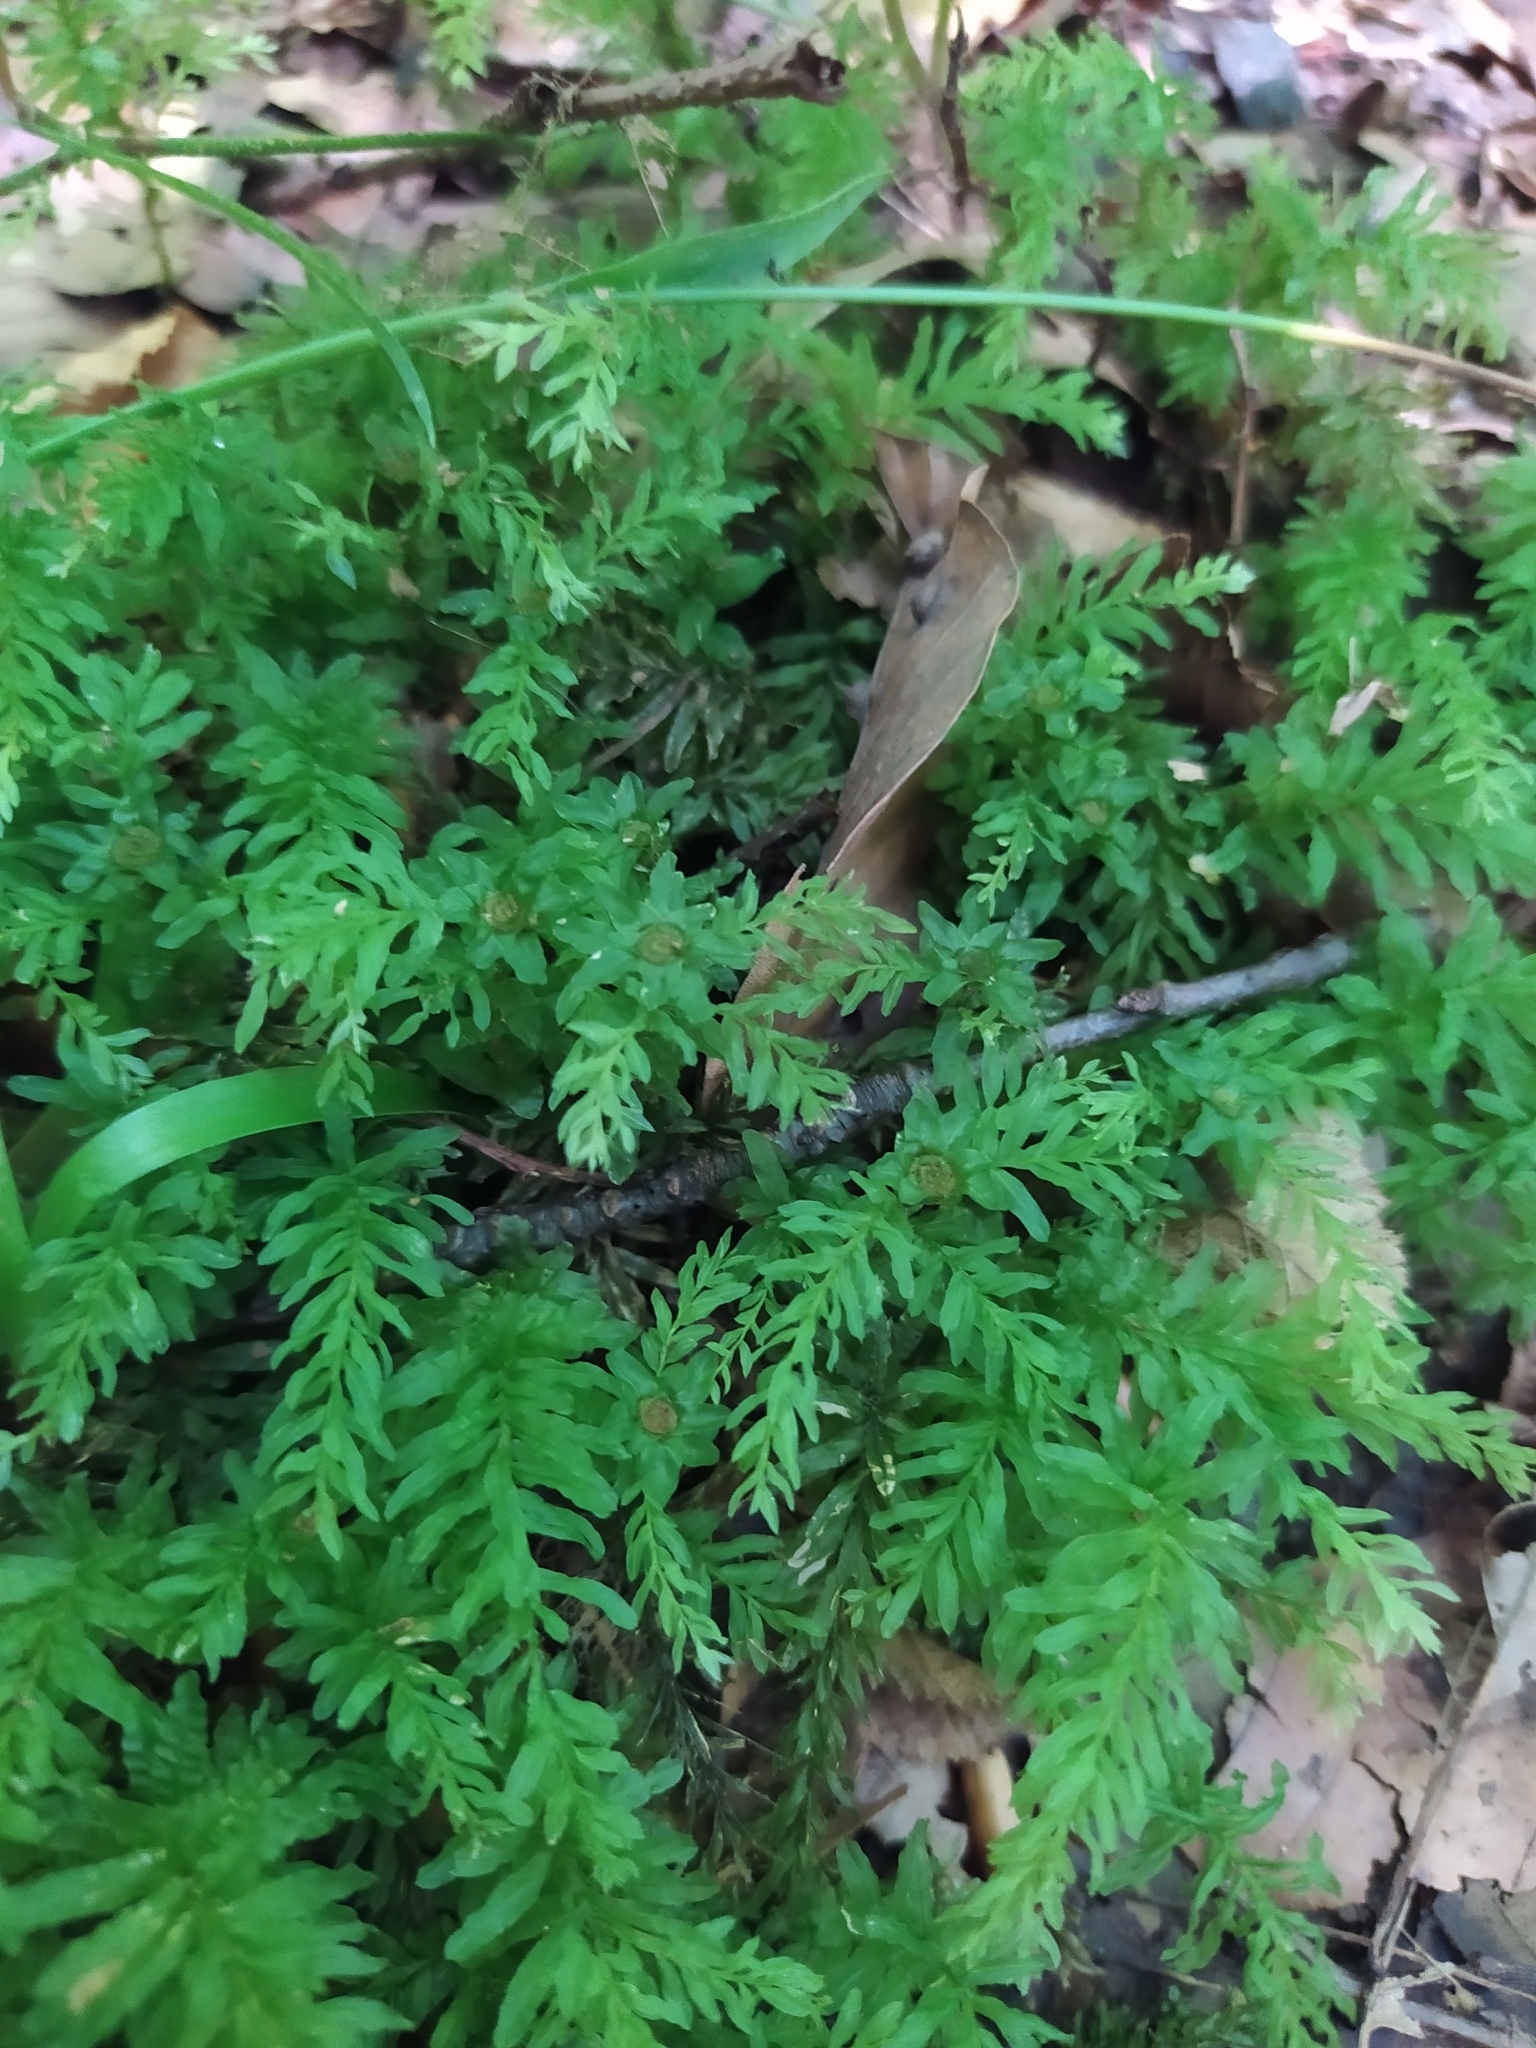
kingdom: Plantae
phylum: Bryophyta
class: Bryopsida
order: Bryales
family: Mniaceae
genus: Plagiomnium
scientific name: Plagiomnium undulatum
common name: Hart's-tongue thyme-moss
